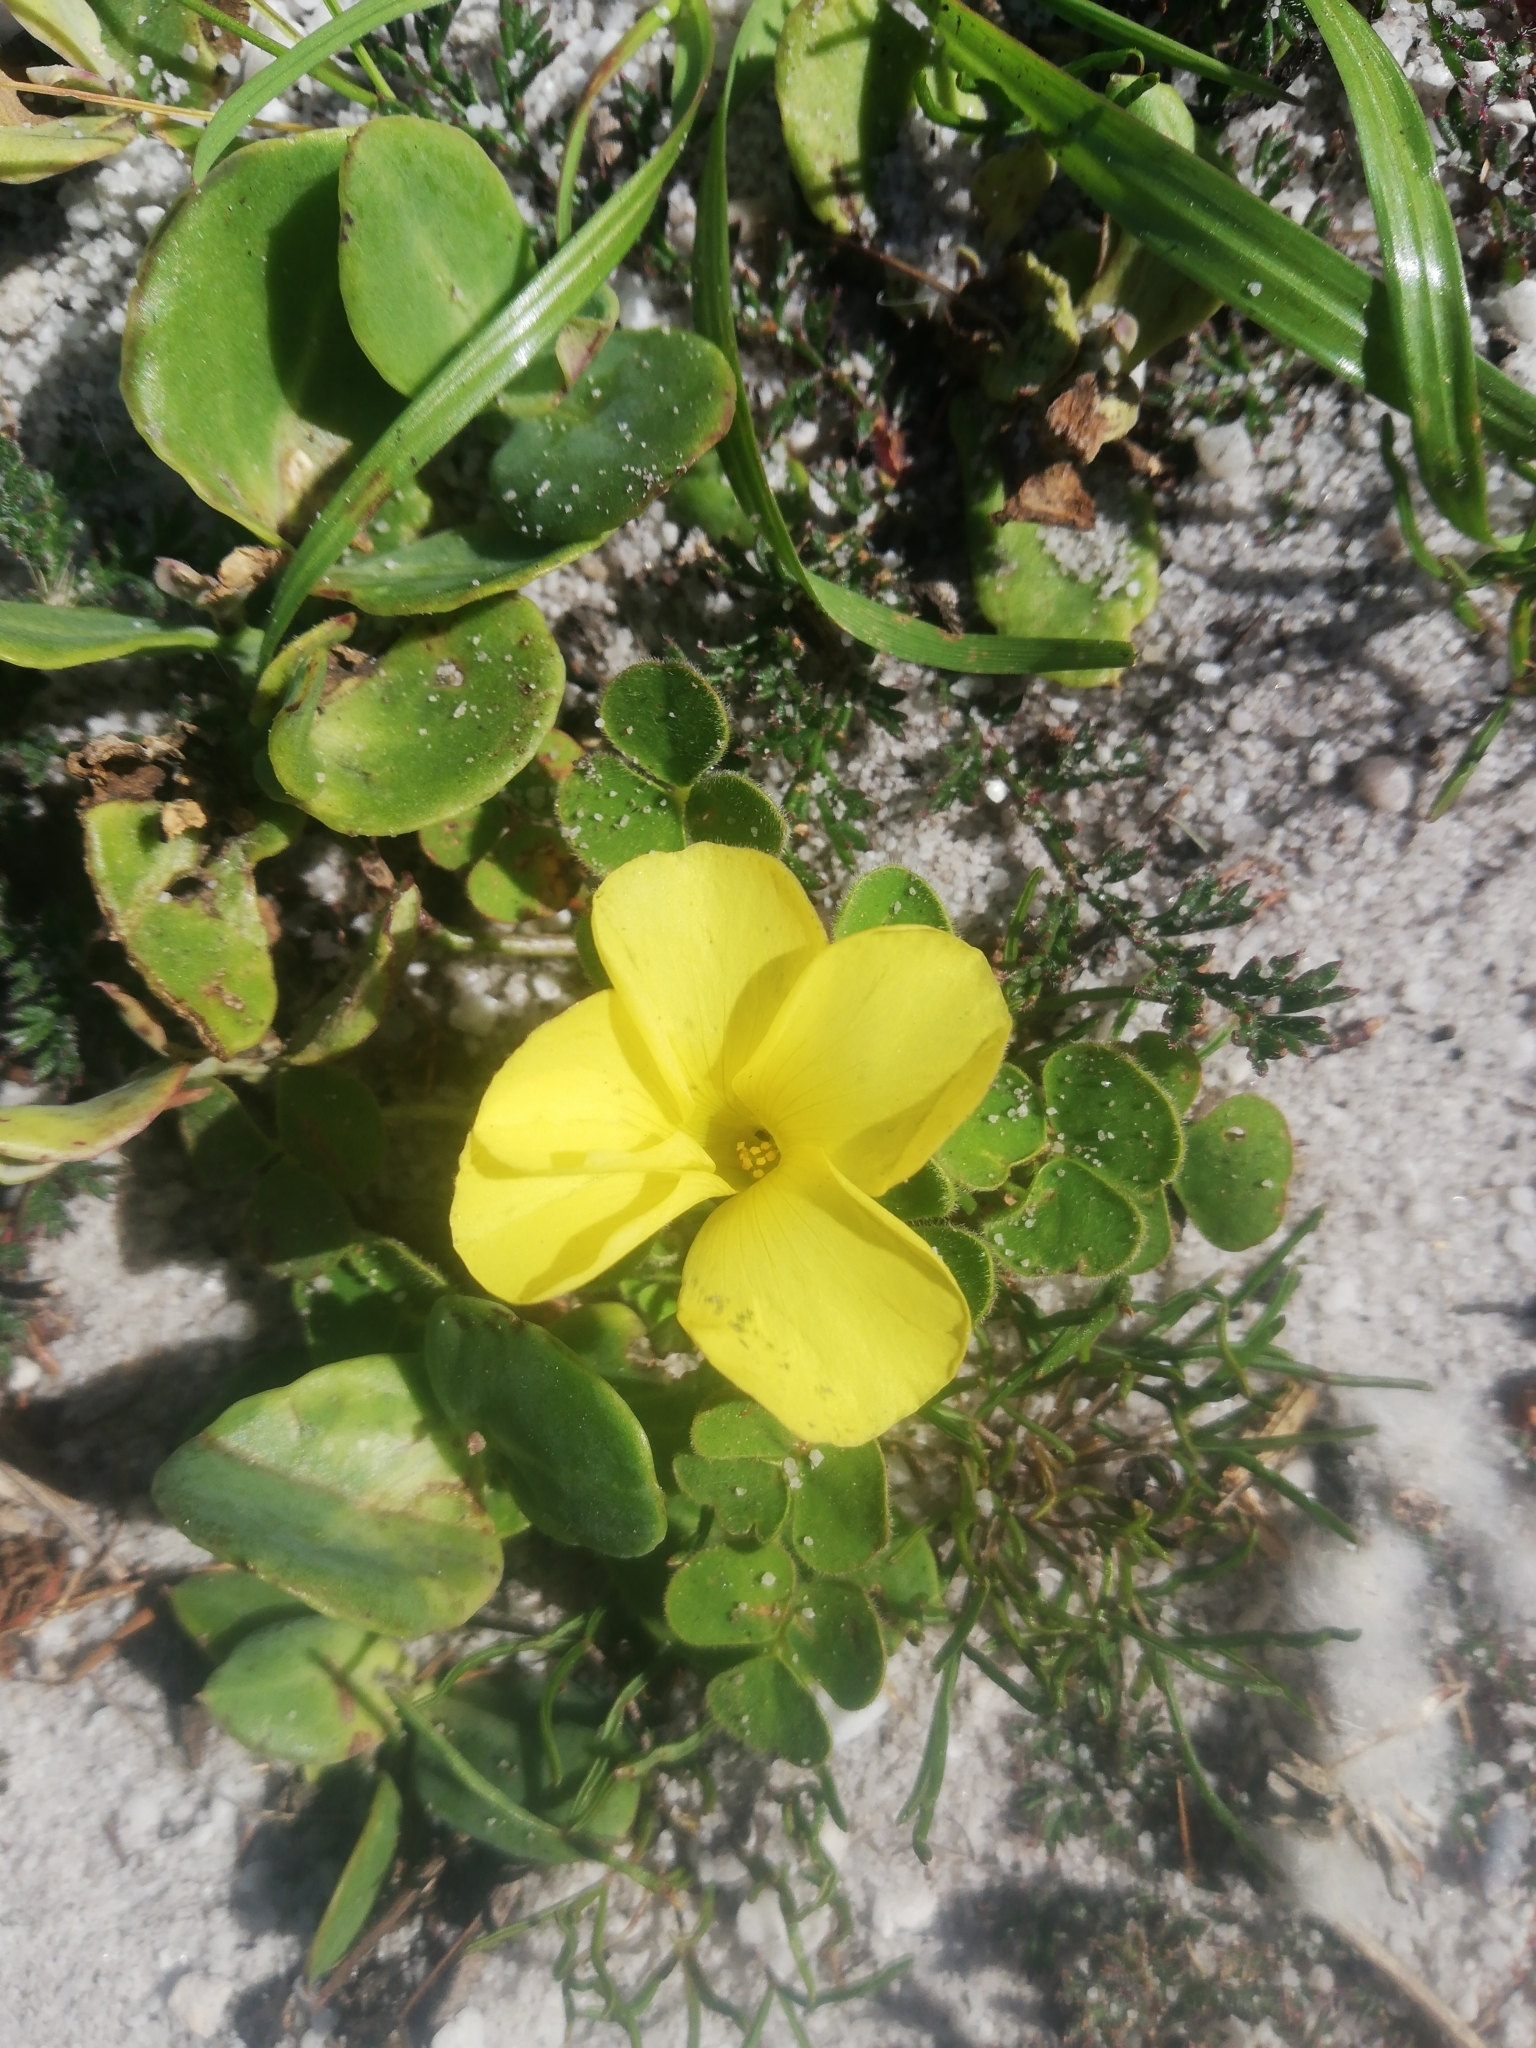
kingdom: Plantae
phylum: Tracheophyta
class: Magnoliopsida
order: Oxalidales
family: Oxalidaceae
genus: Oxalis
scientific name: Oxalis luteola
